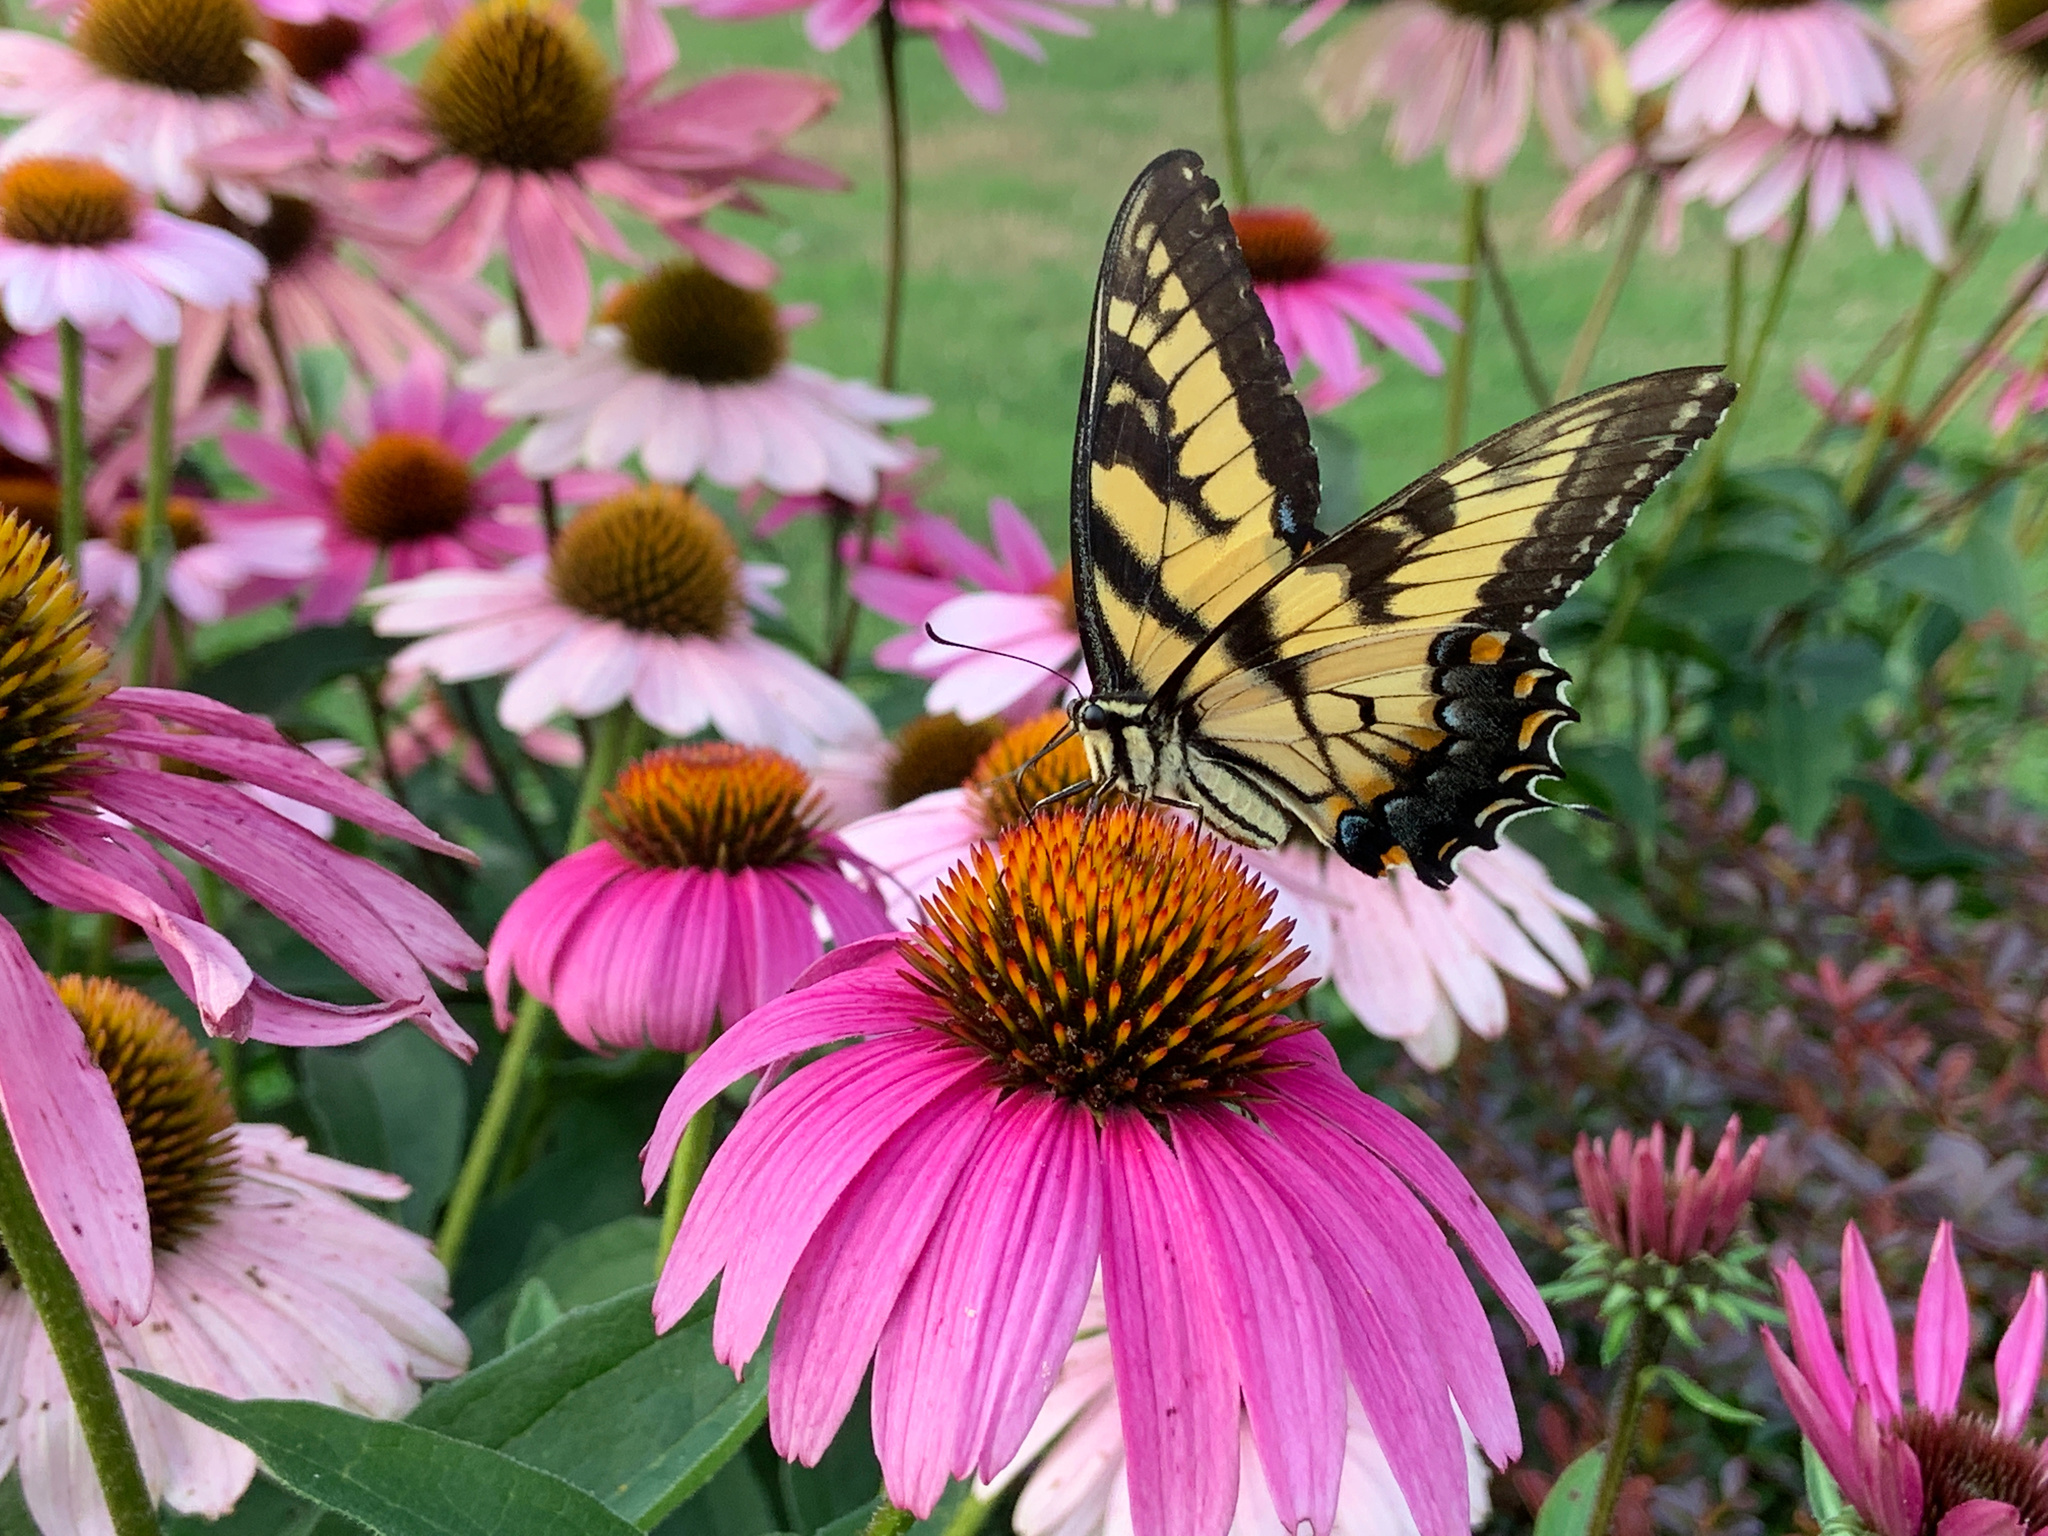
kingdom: Animalia
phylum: Arthropoda
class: Insecta
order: Lepidoptera
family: Papilionidae
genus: Papilio
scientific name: Papilio glaucus
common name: Tiger swallowtail
